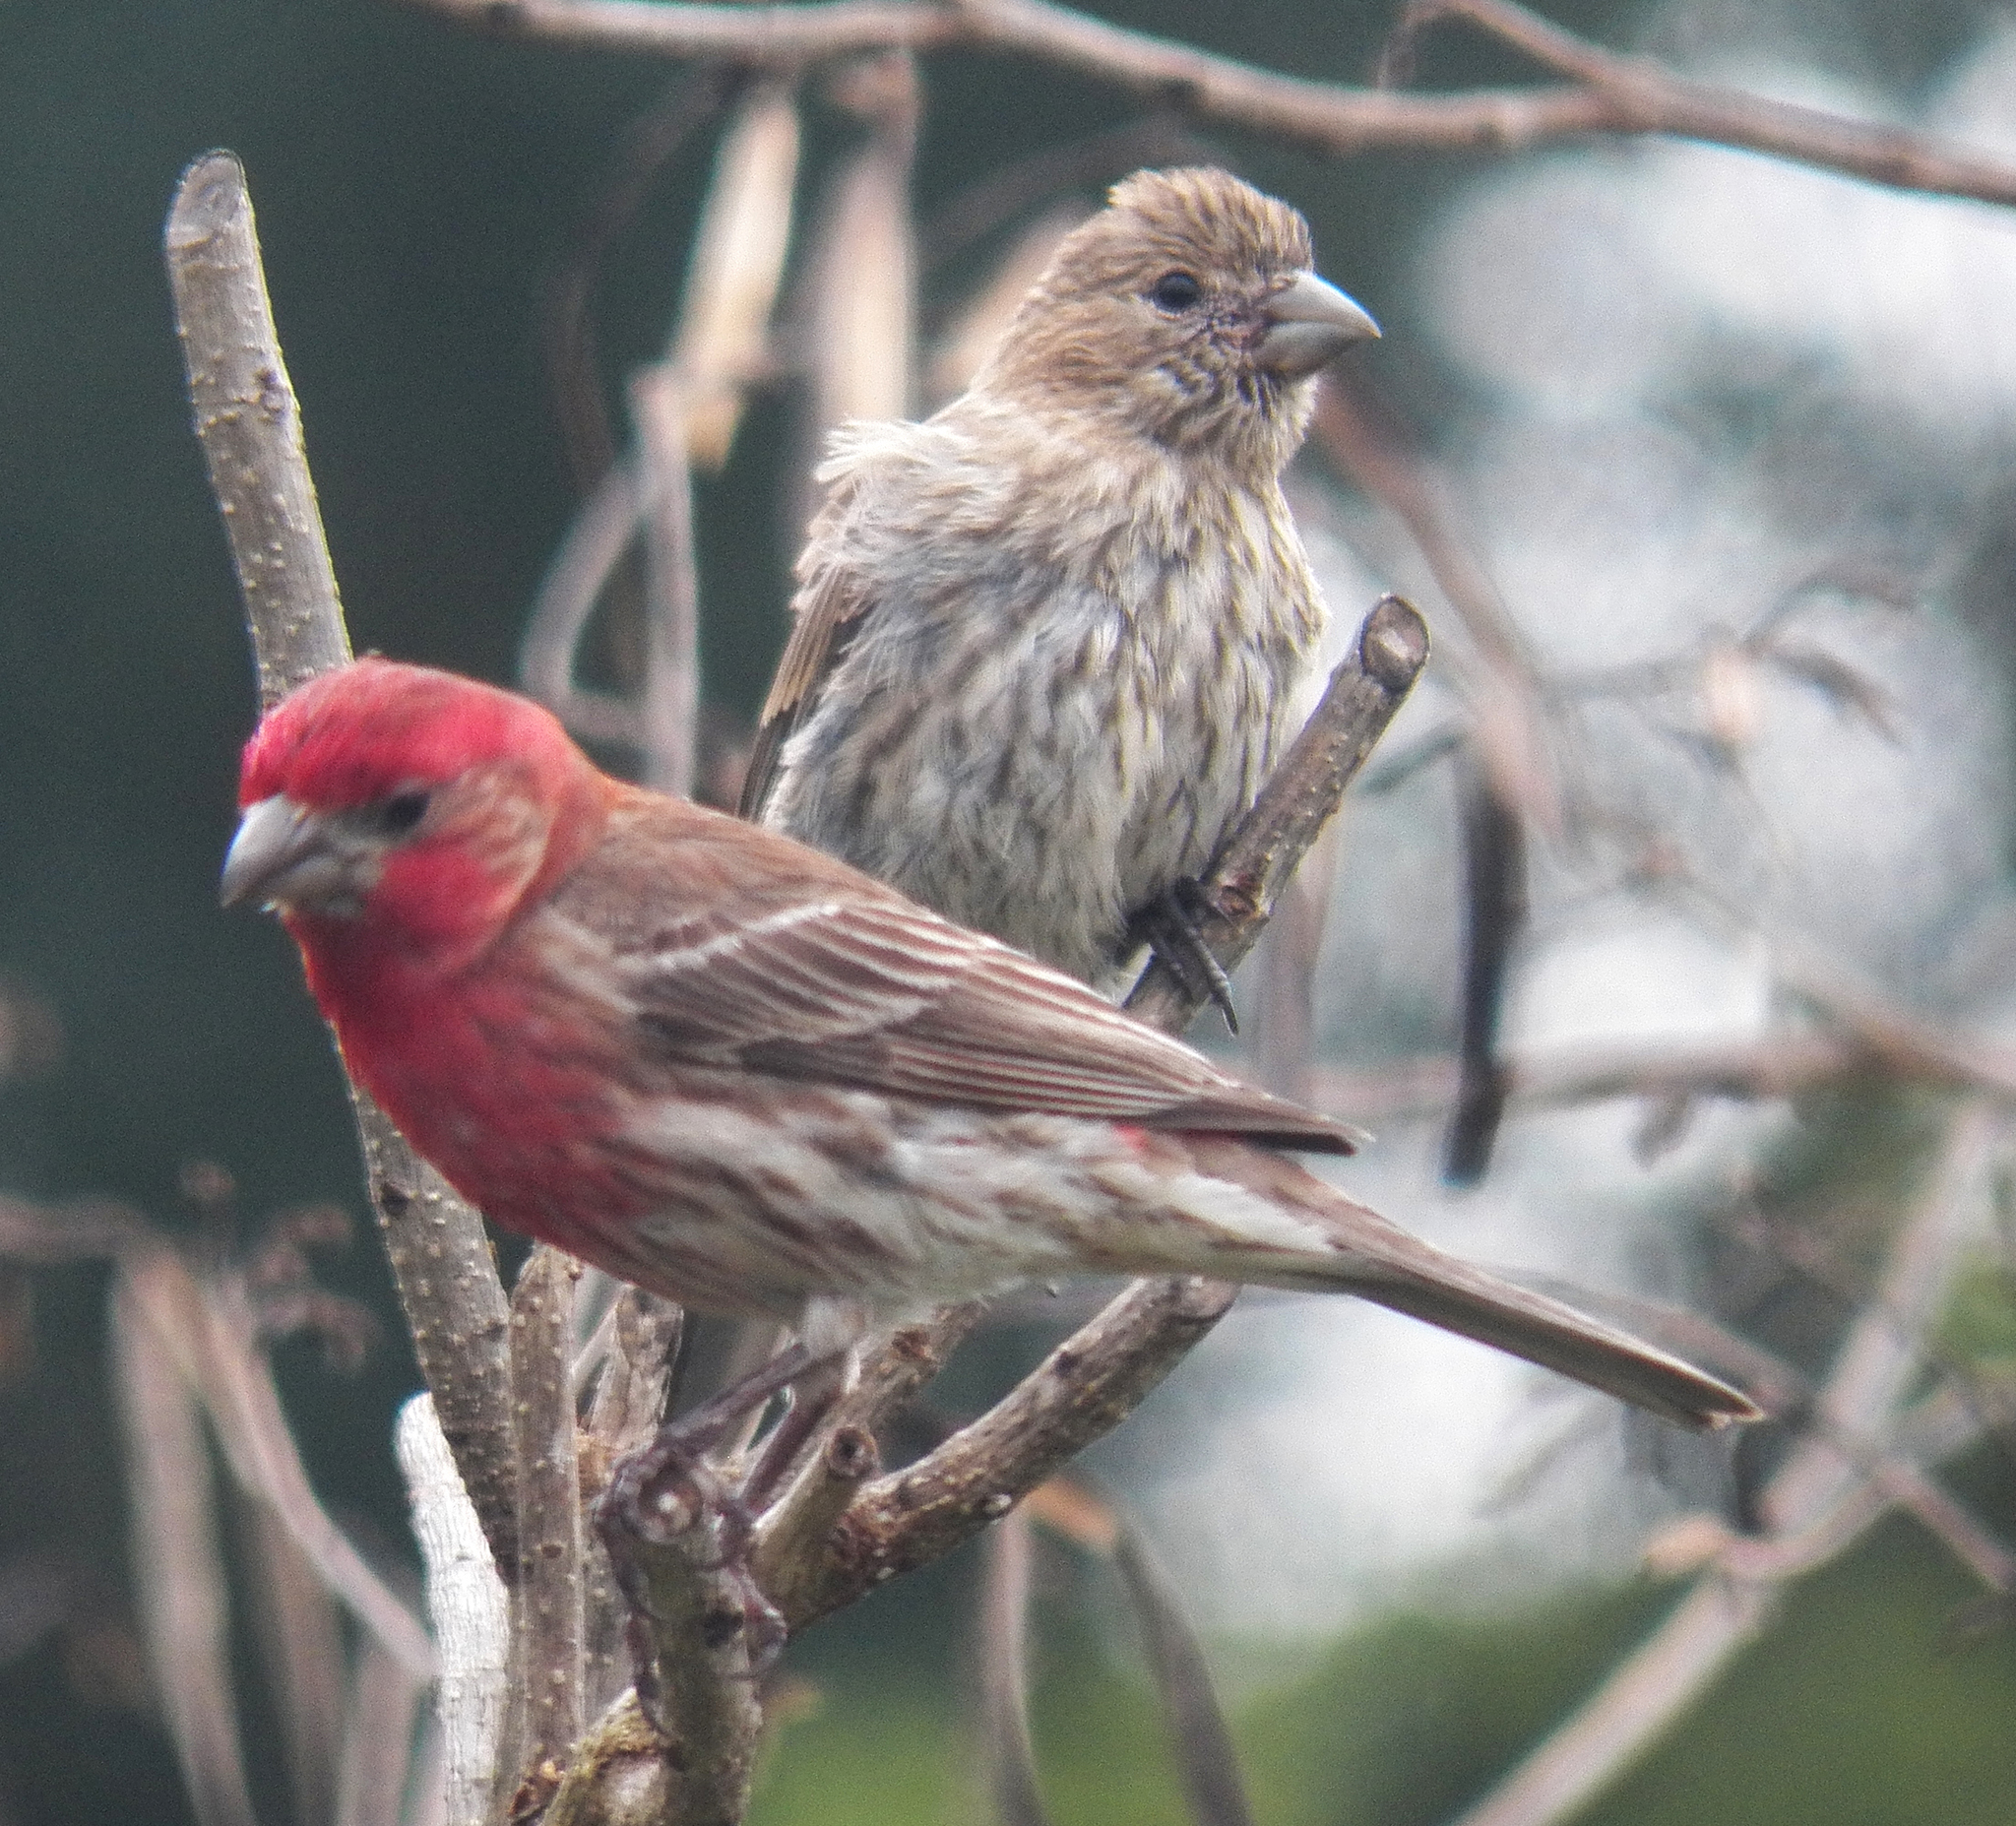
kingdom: Animalia
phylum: Chordata
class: Aves
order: Passeriformes
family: Fringillidae
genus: Haemorhous
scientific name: Haemorhous mexicanus
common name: House finch
